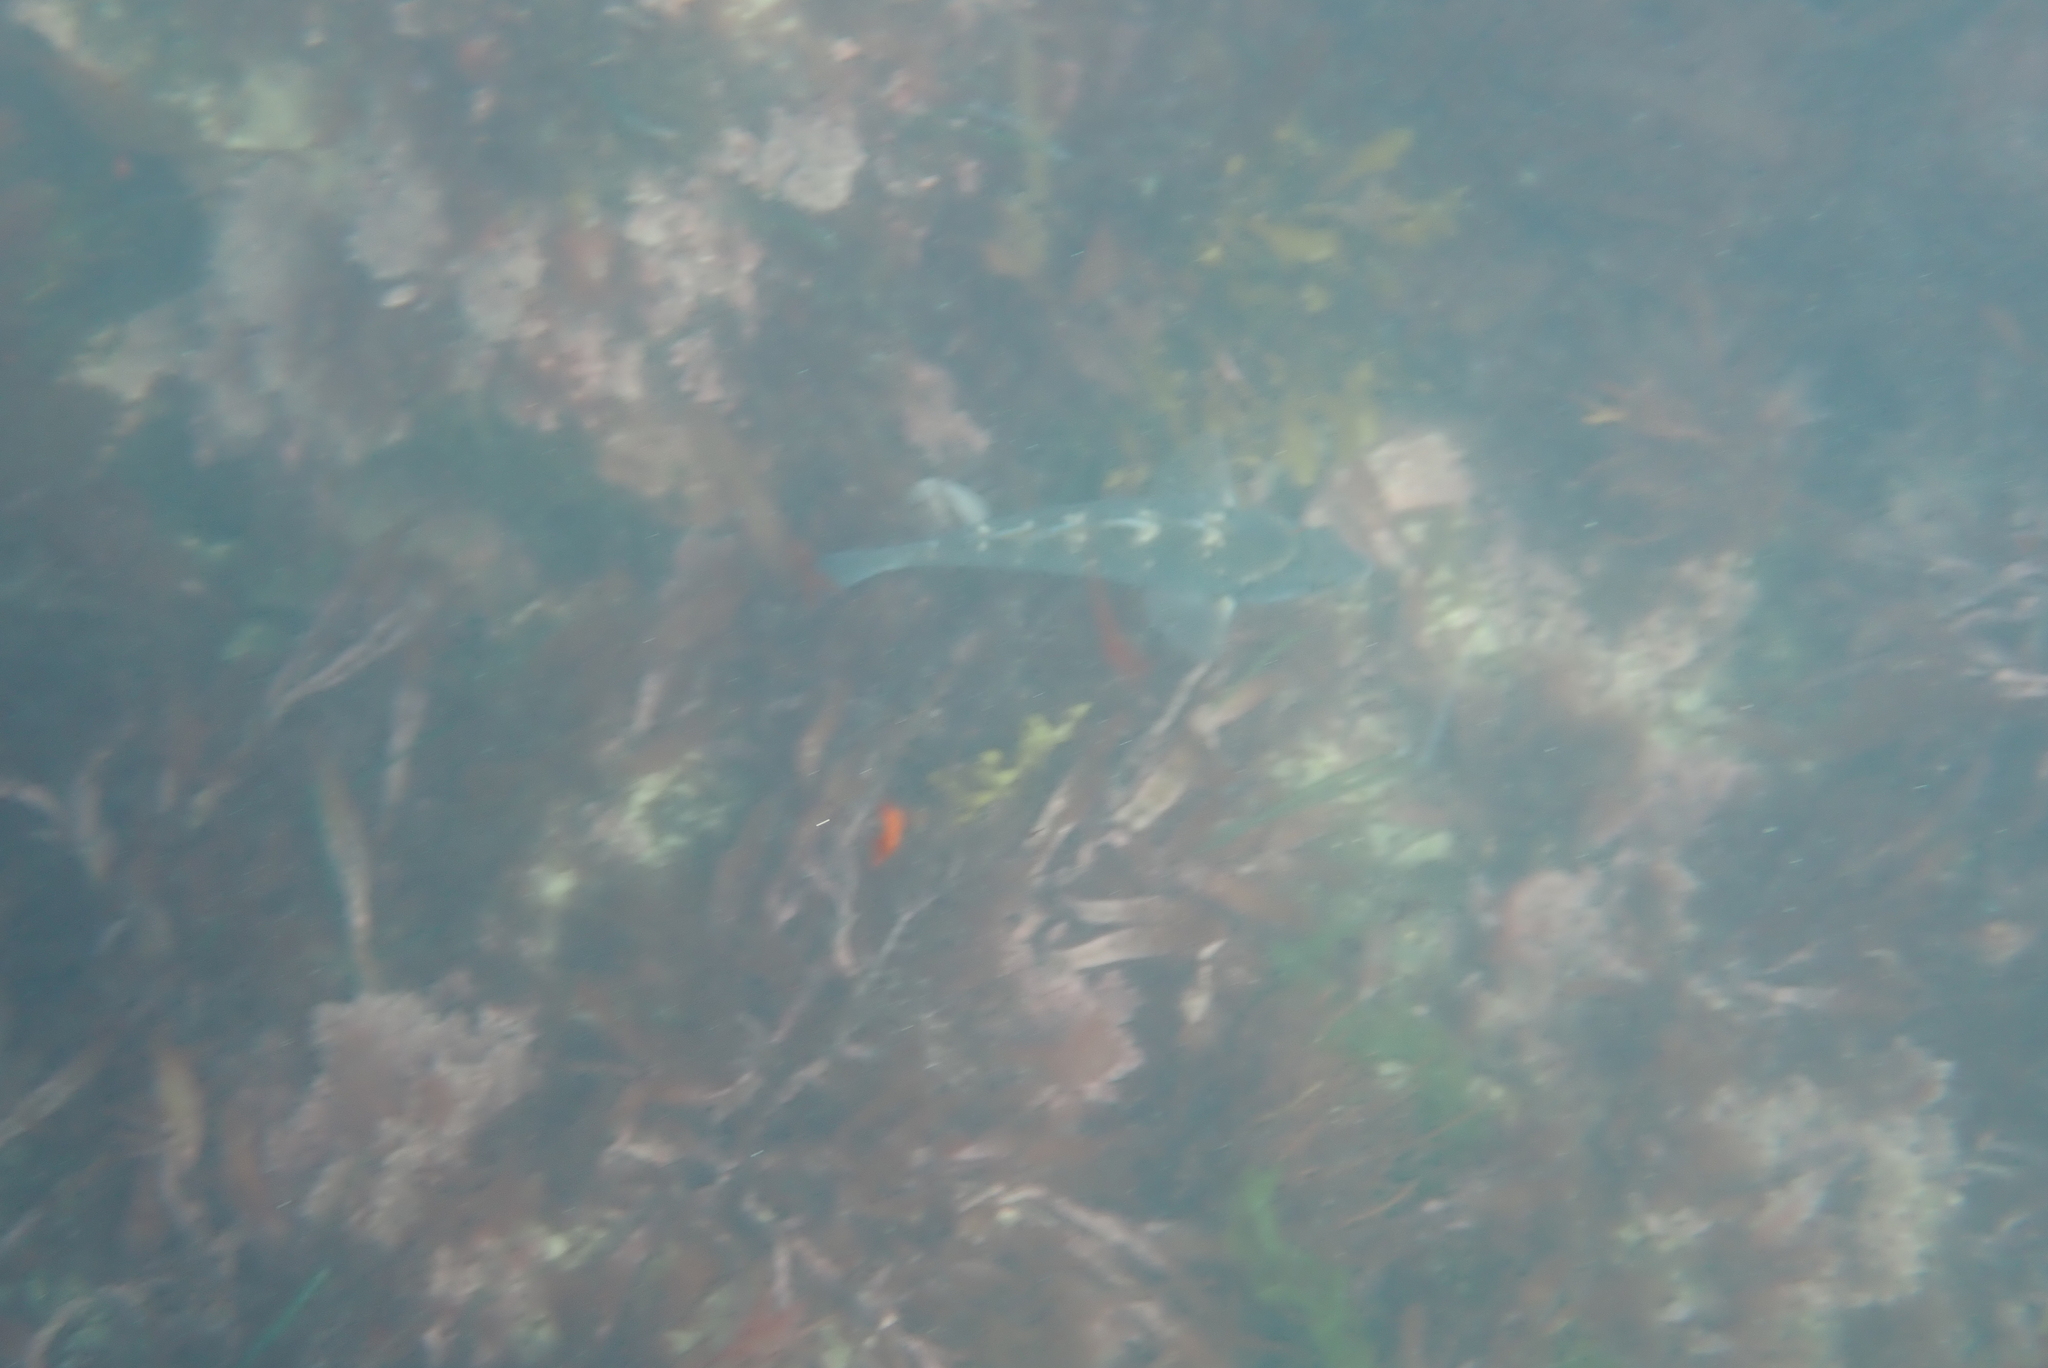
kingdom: Animalia
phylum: Chordata
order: Perciformes
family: Labridae
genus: Notolabrus
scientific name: Notolabrus fucicola
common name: Banded parrotfish
